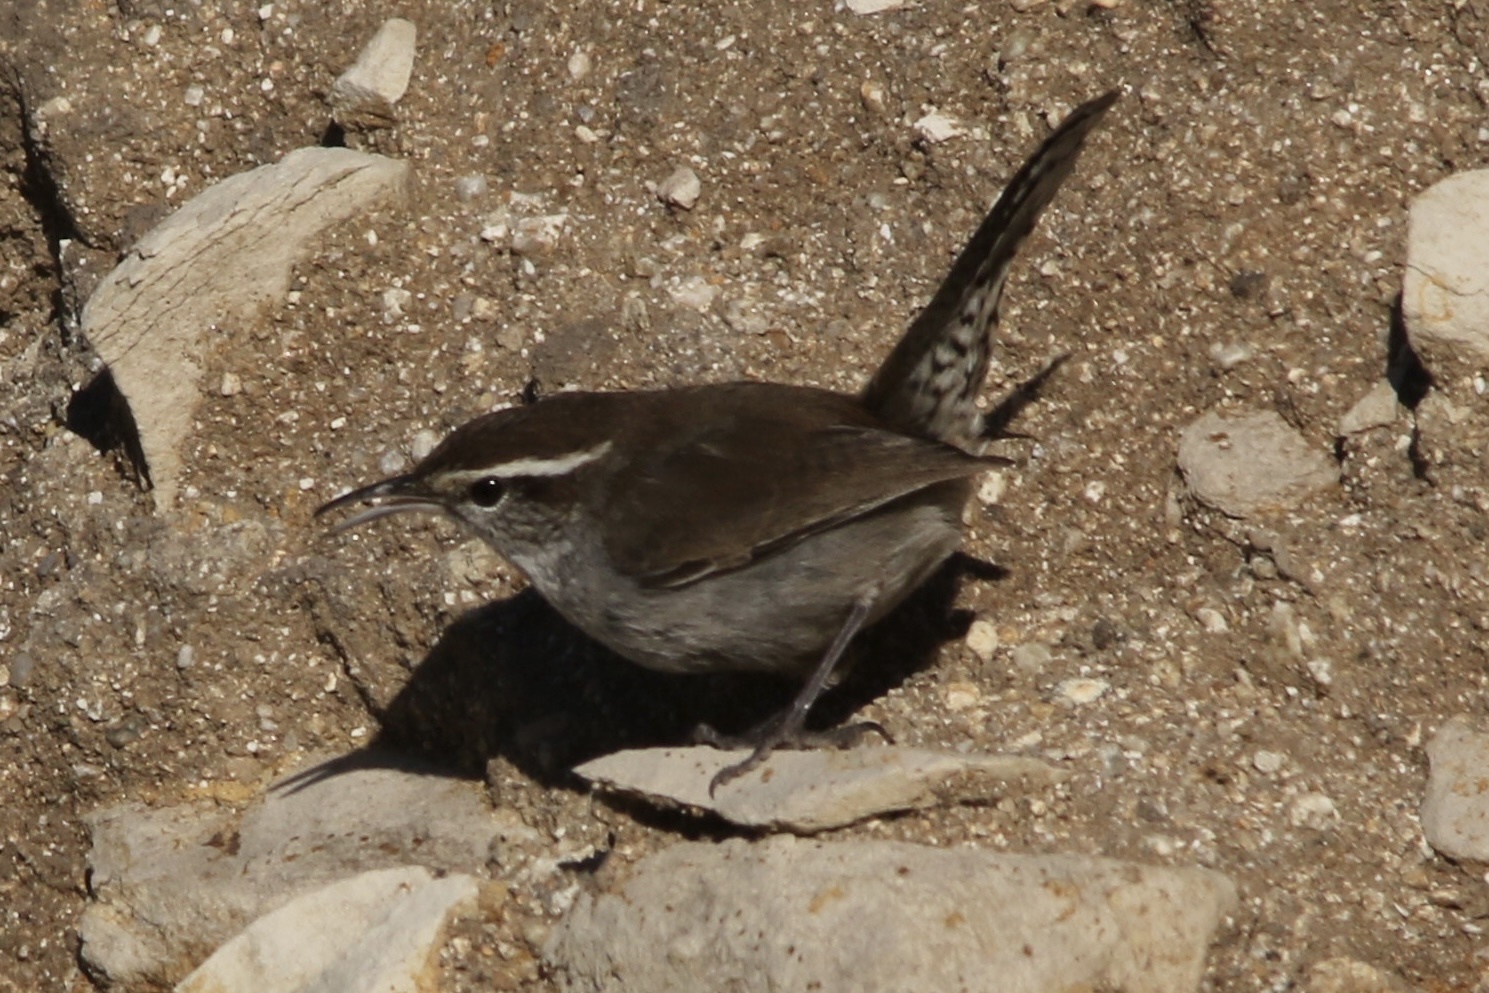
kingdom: Animalia
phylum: Chordata
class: Aves
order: Passeriformes
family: Troglodytidae
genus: Thryomanes
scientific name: Thryomanes bewickii
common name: Bewick's wren
